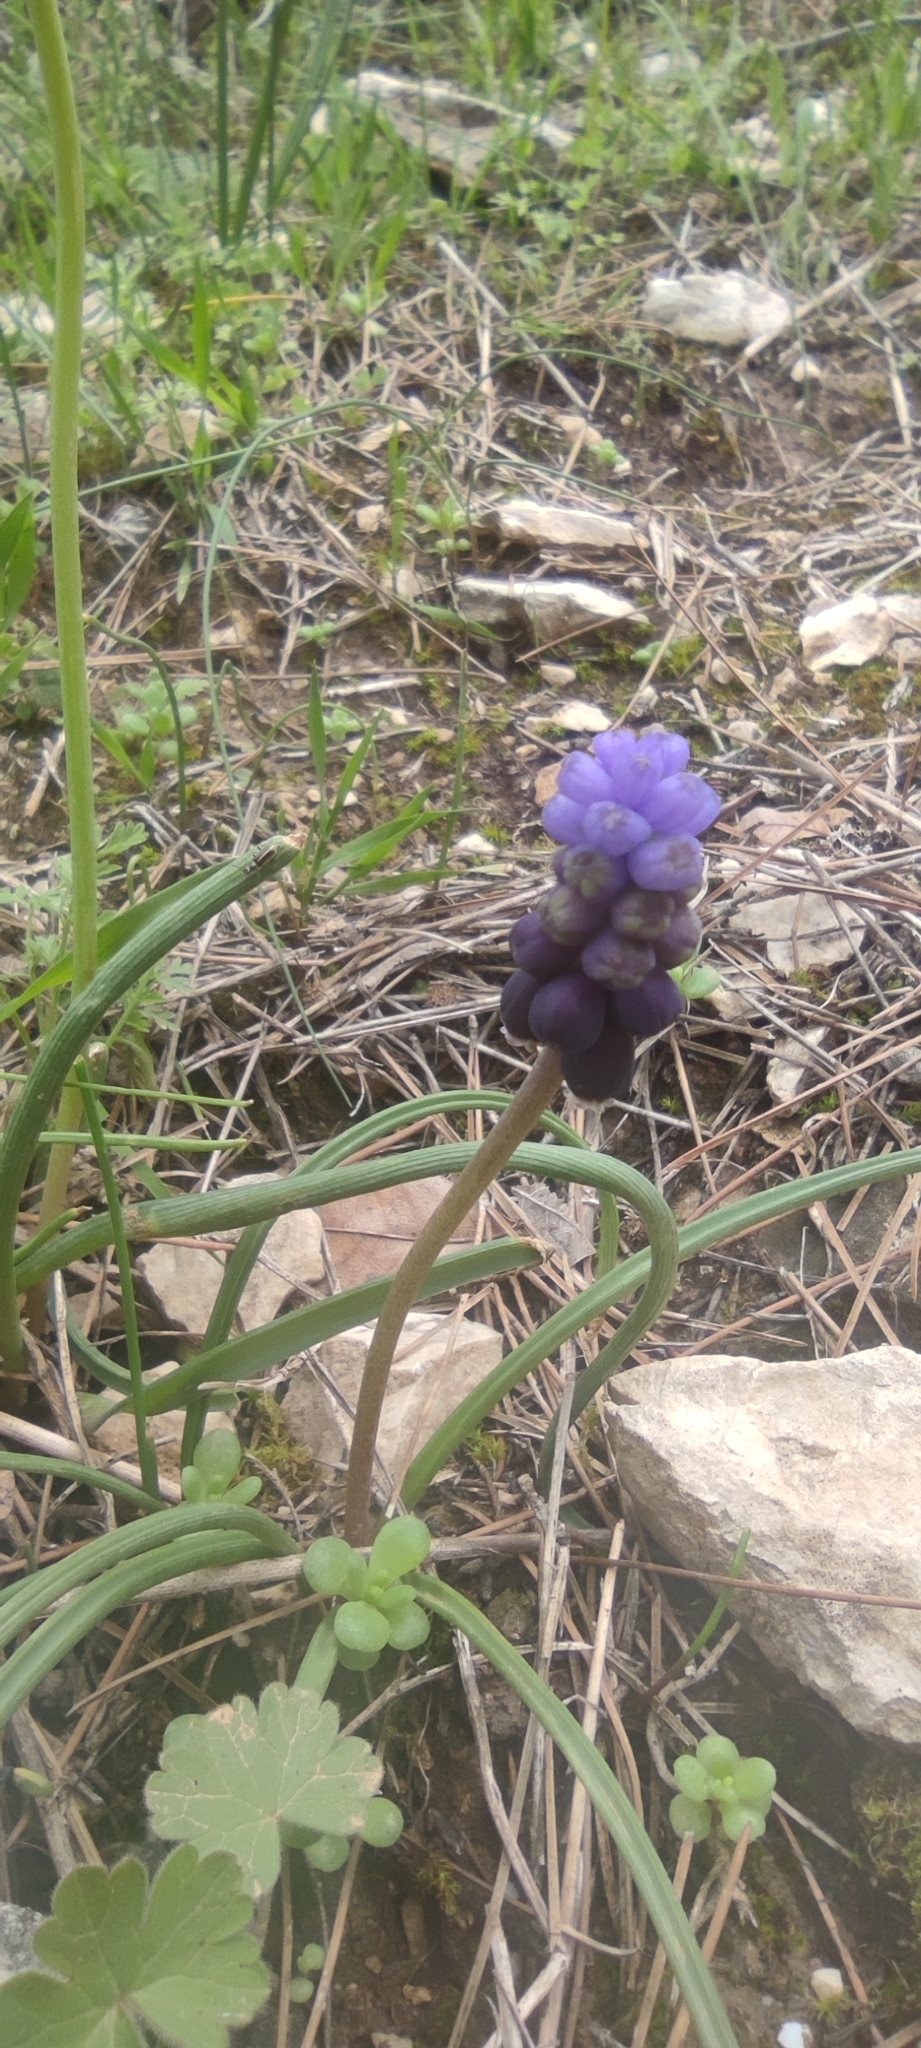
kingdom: Plantae
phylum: Tracheophyta
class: Liliopsida
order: Asparagales
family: Asparagaceae
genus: Muscari
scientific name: Muscari neglectum
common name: Grape-hyacinth
